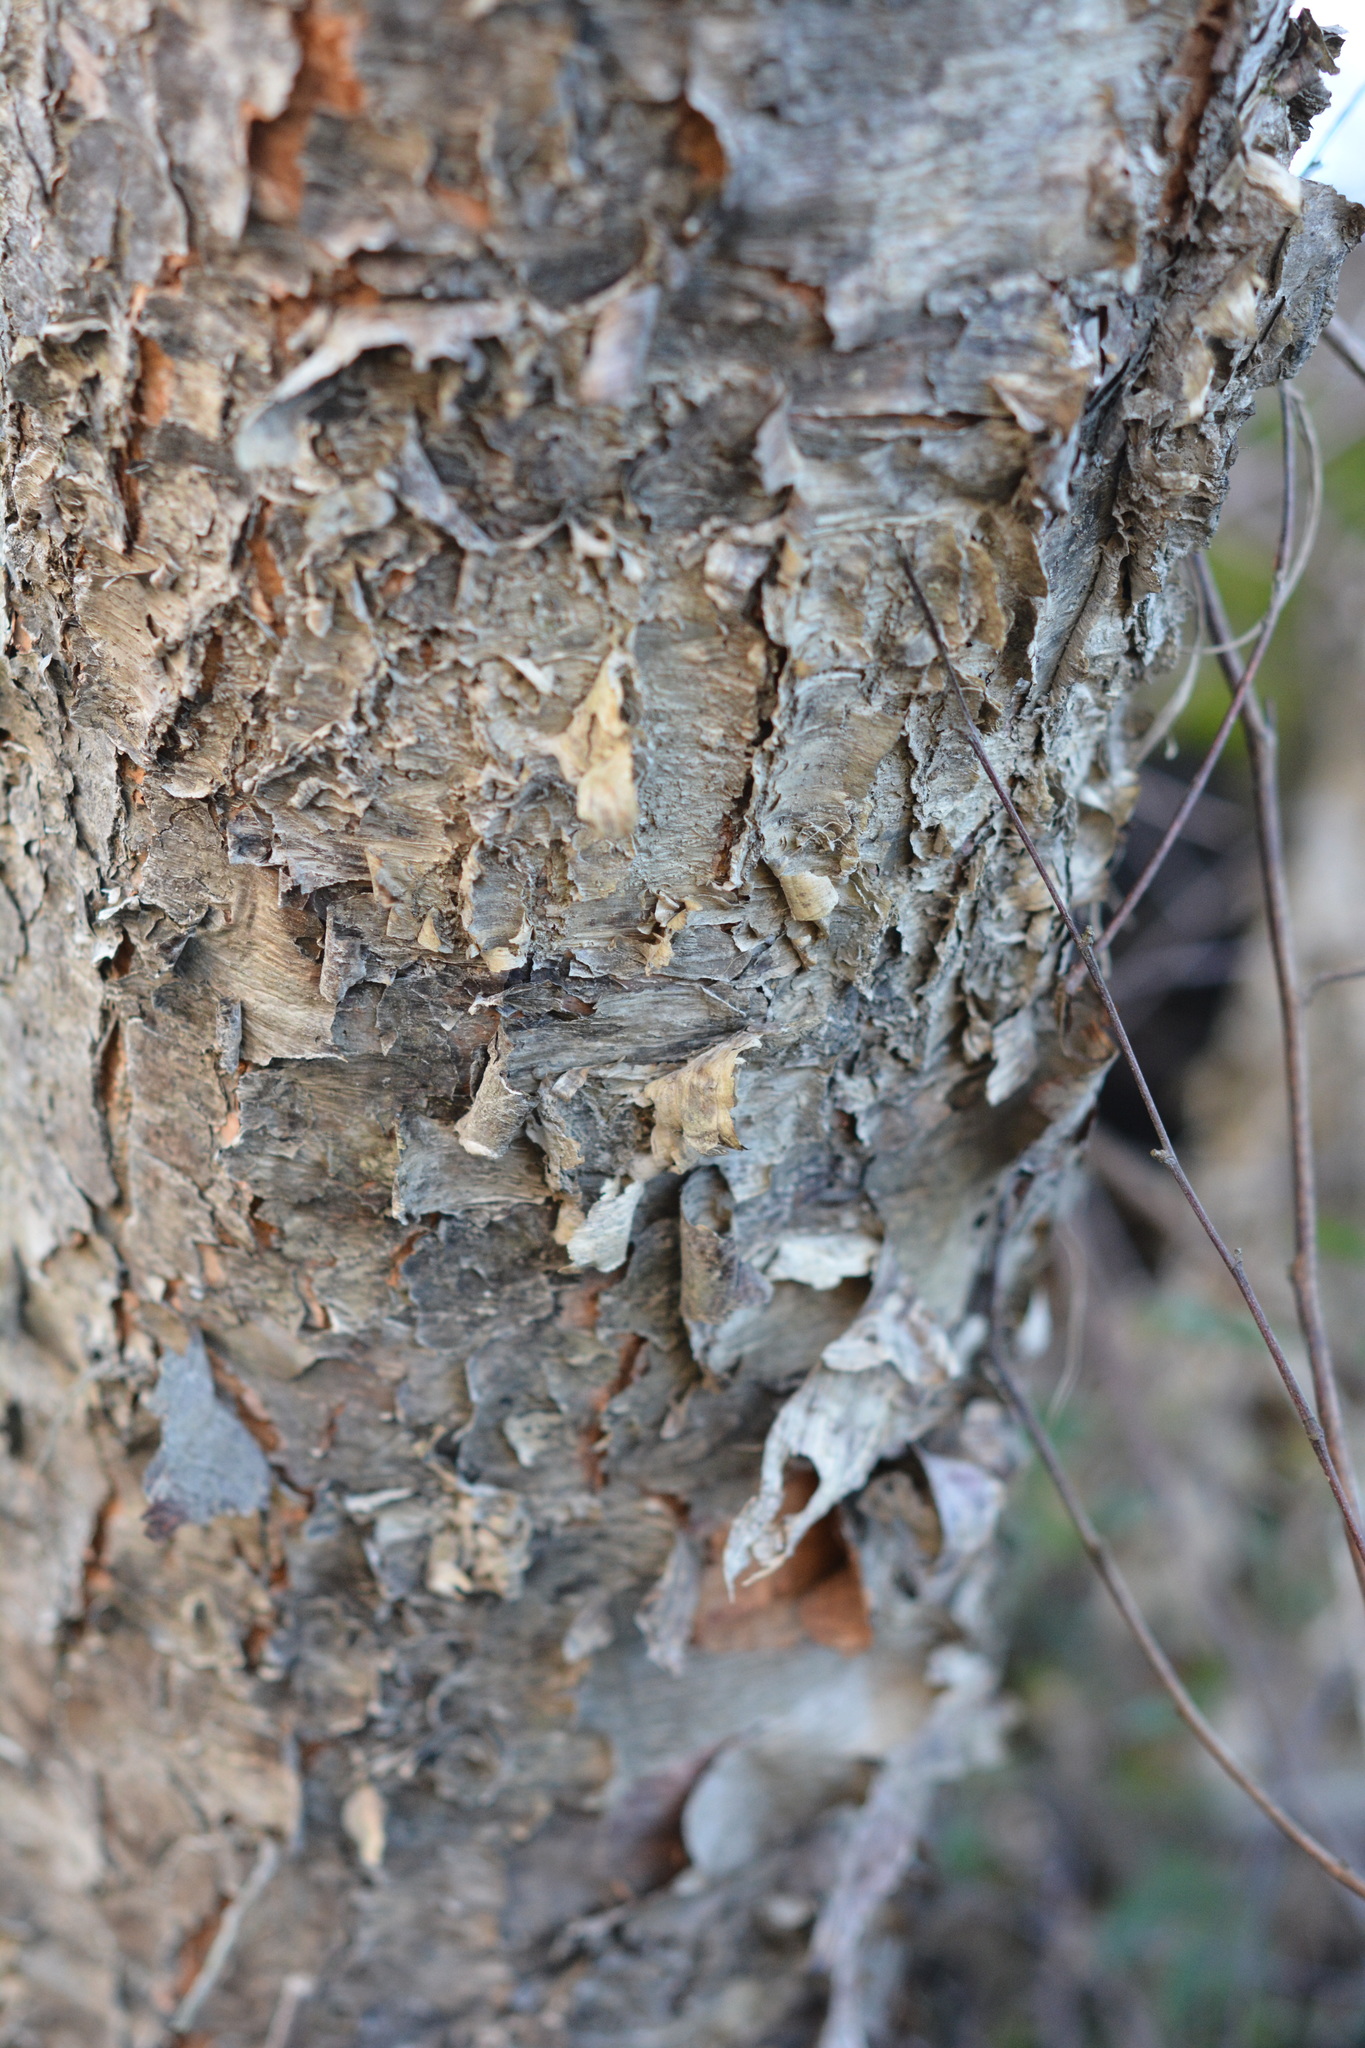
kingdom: Plantae
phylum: Tracheophyta
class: Magnoliopsida
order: Fagales
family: Betulaceae
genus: Betula
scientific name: Betula nigra
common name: Black birch
